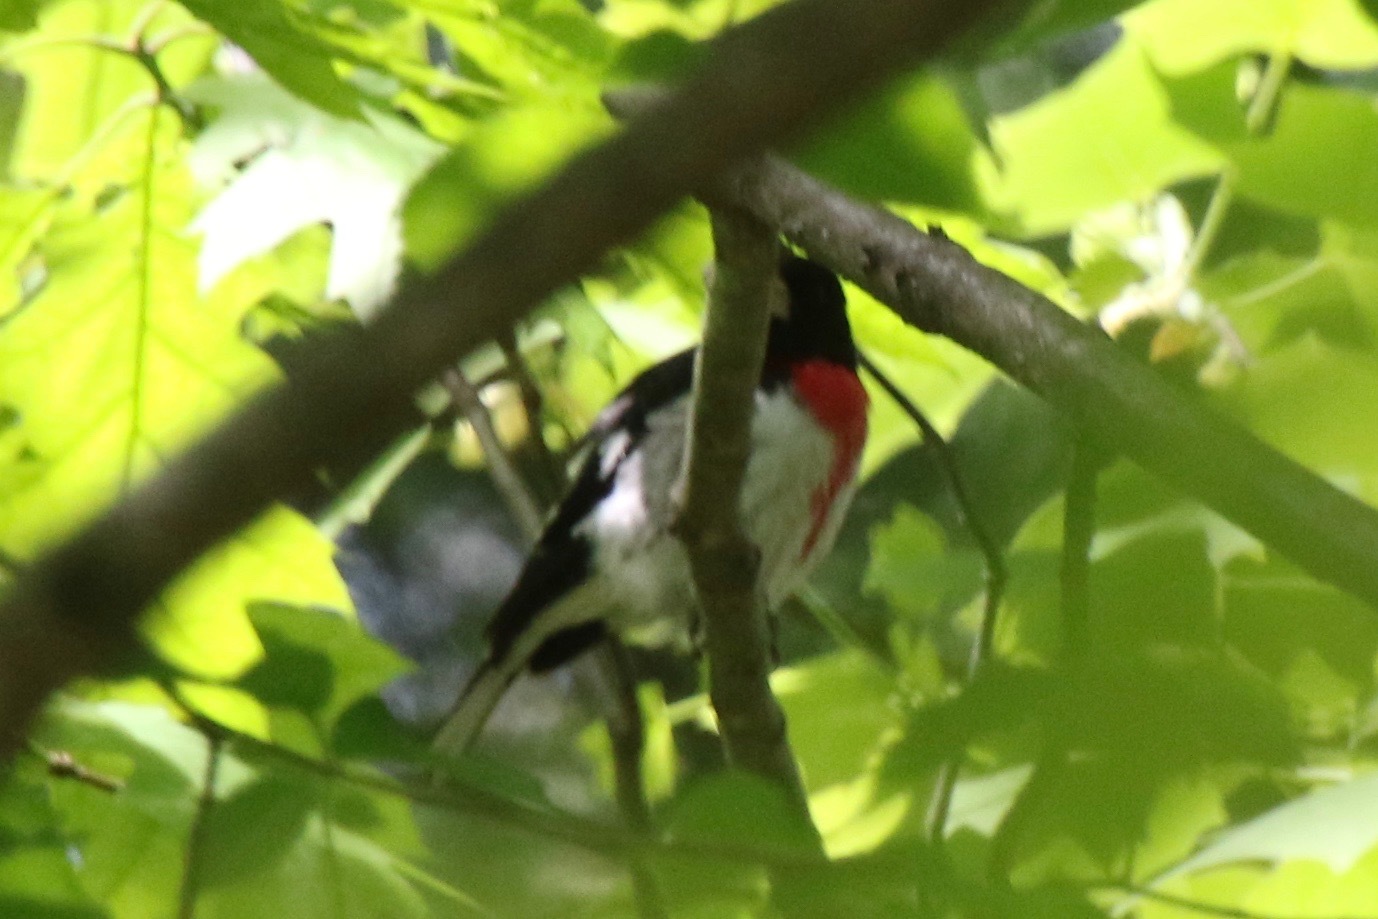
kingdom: Animalia
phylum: Chordata
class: Aves
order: Passeriformes
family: Cardinalidae
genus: Pheucticus
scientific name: Pheucticus ludovicianus
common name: Rose-breasted grosbeak
